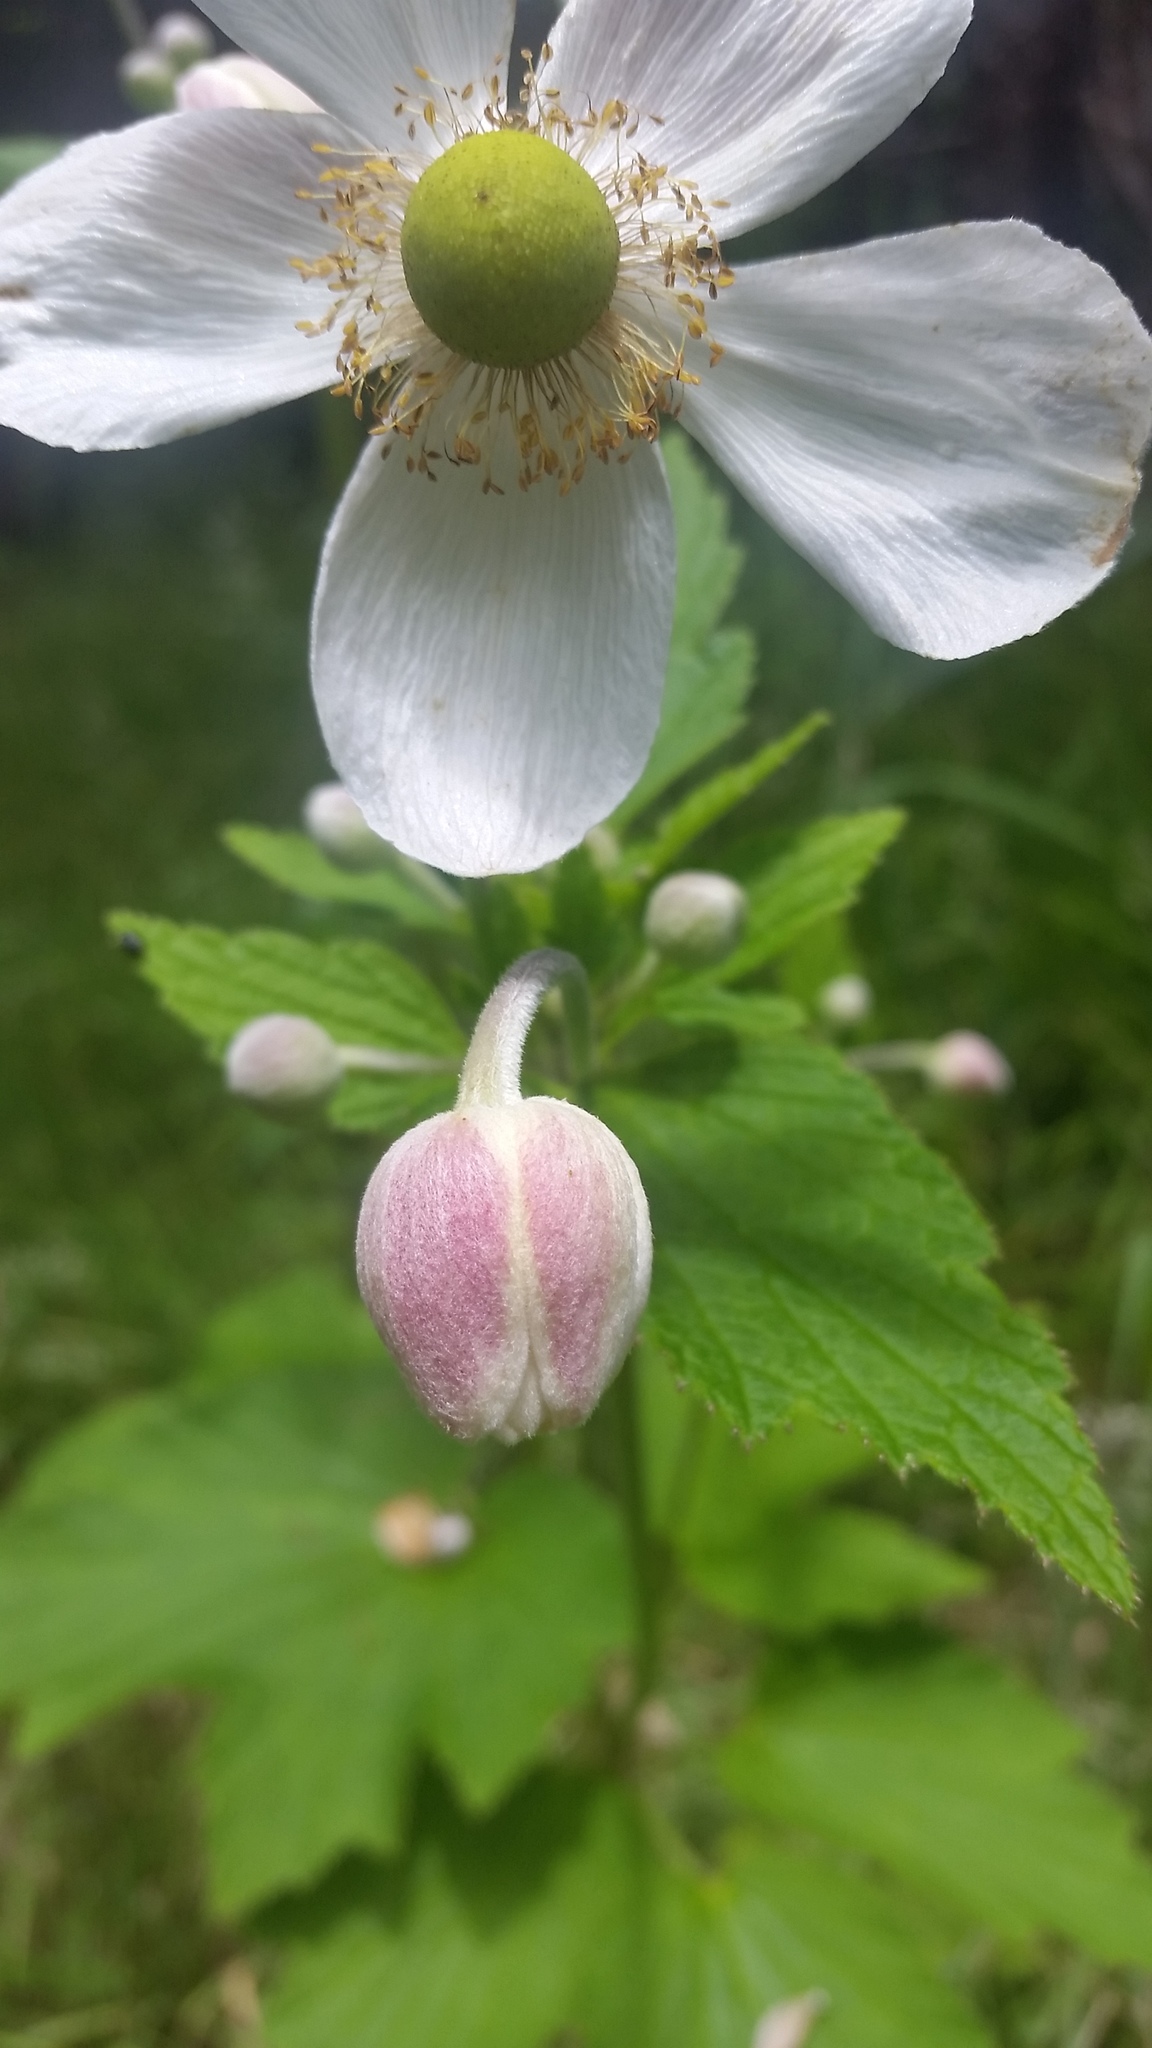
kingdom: Plantae
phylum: Tracheophyta
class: Magnoliopsida
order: Ranunculales
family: Ranunculaceae
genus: Eriocapitella
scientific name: Eriocapitella japonica
